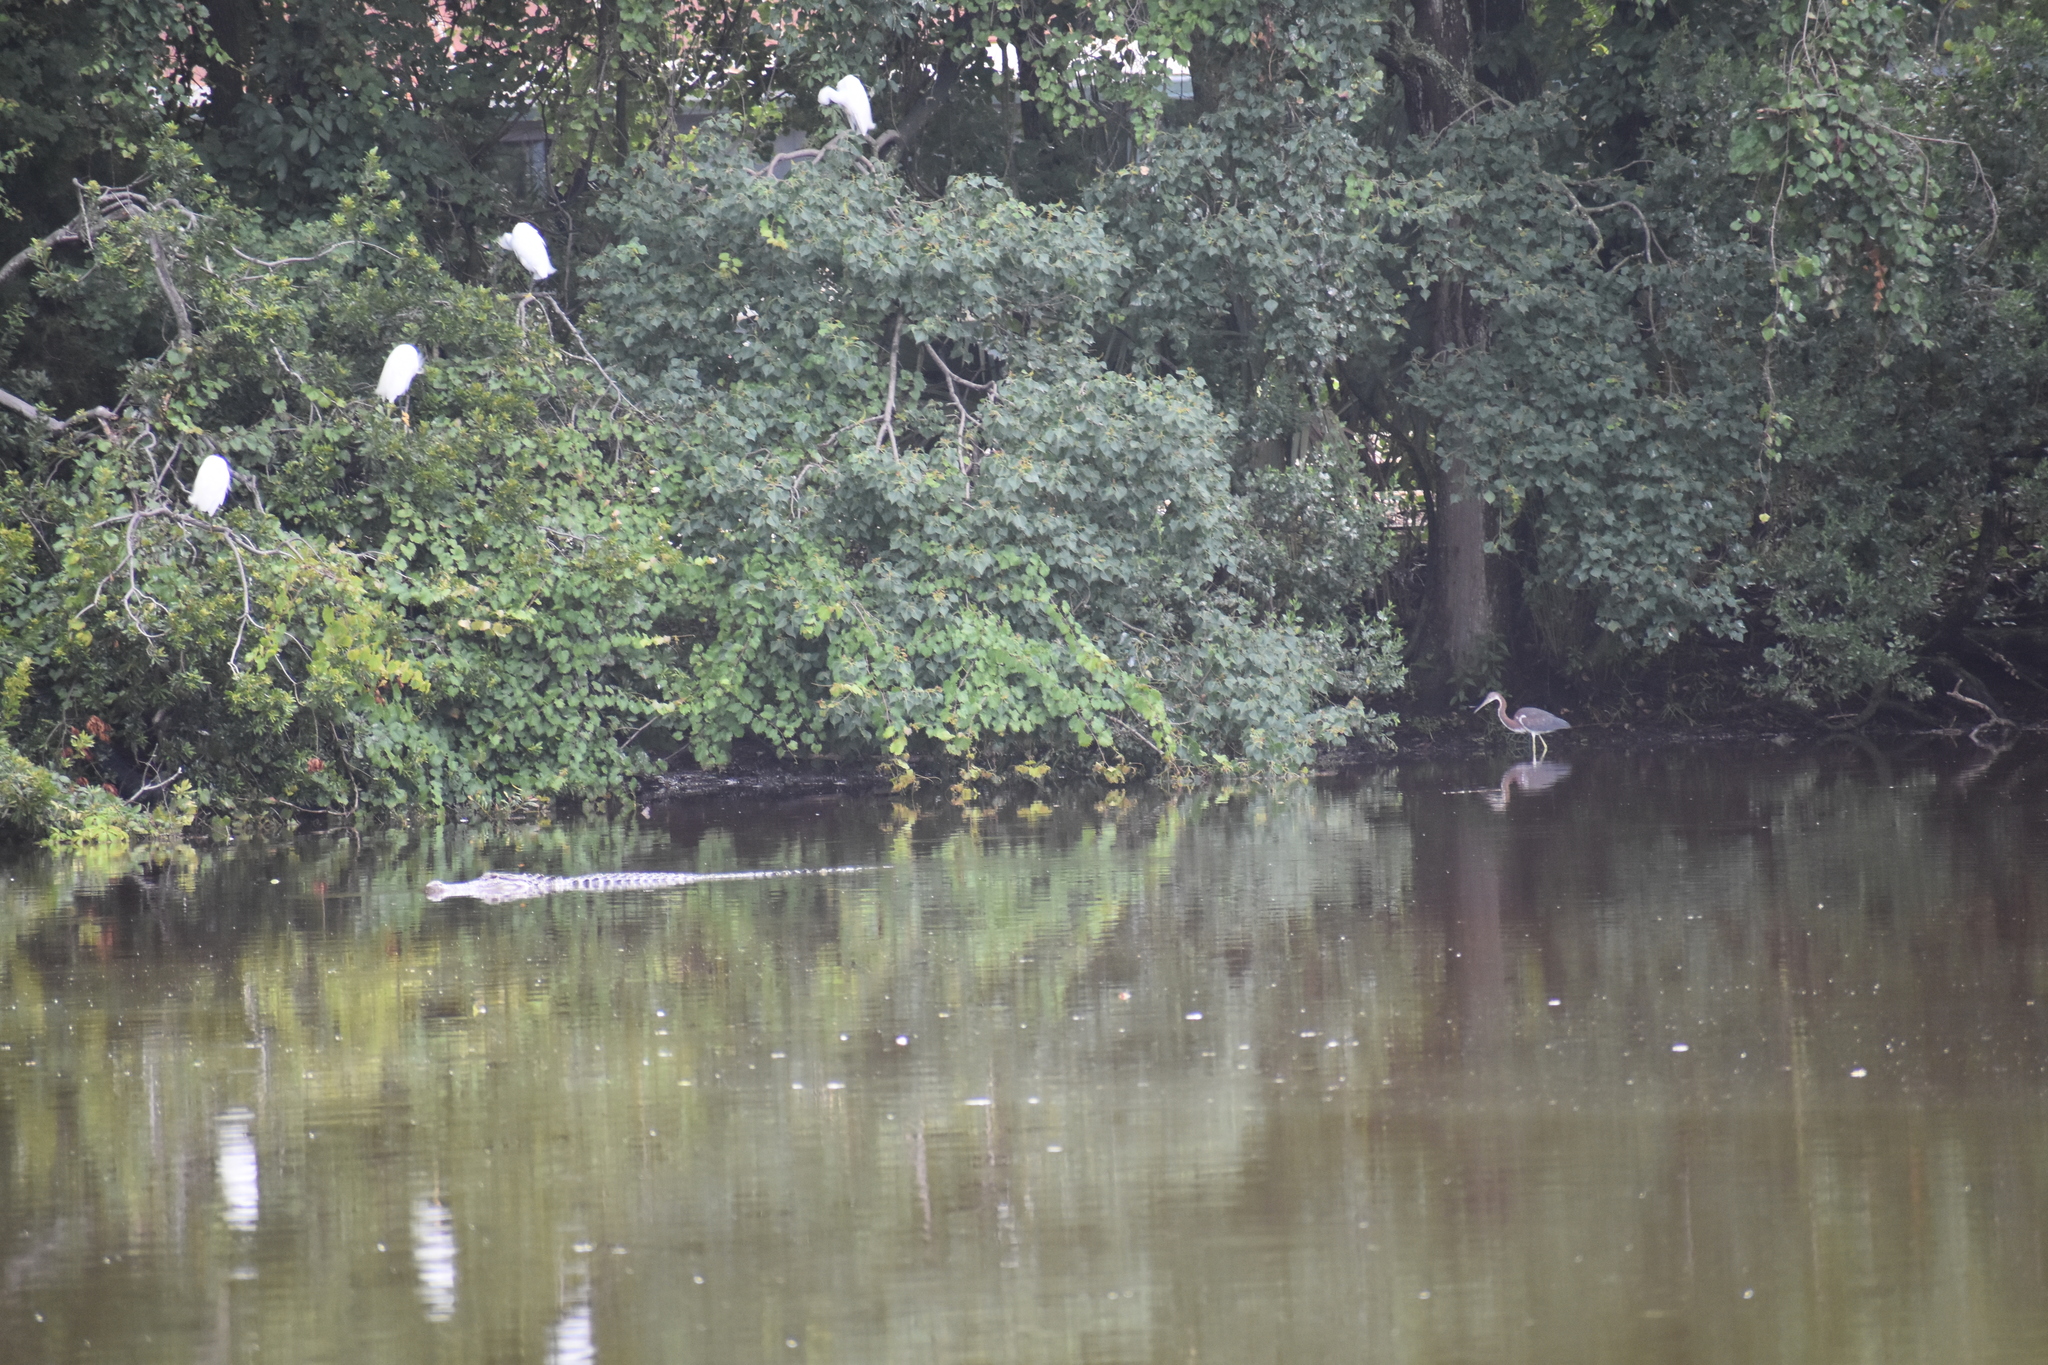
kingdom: Animalia
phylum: Chordata
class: Crocodylia
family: Alligatoridae
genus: Alligator
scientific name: Alligator mississippiensis
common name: American alligator
